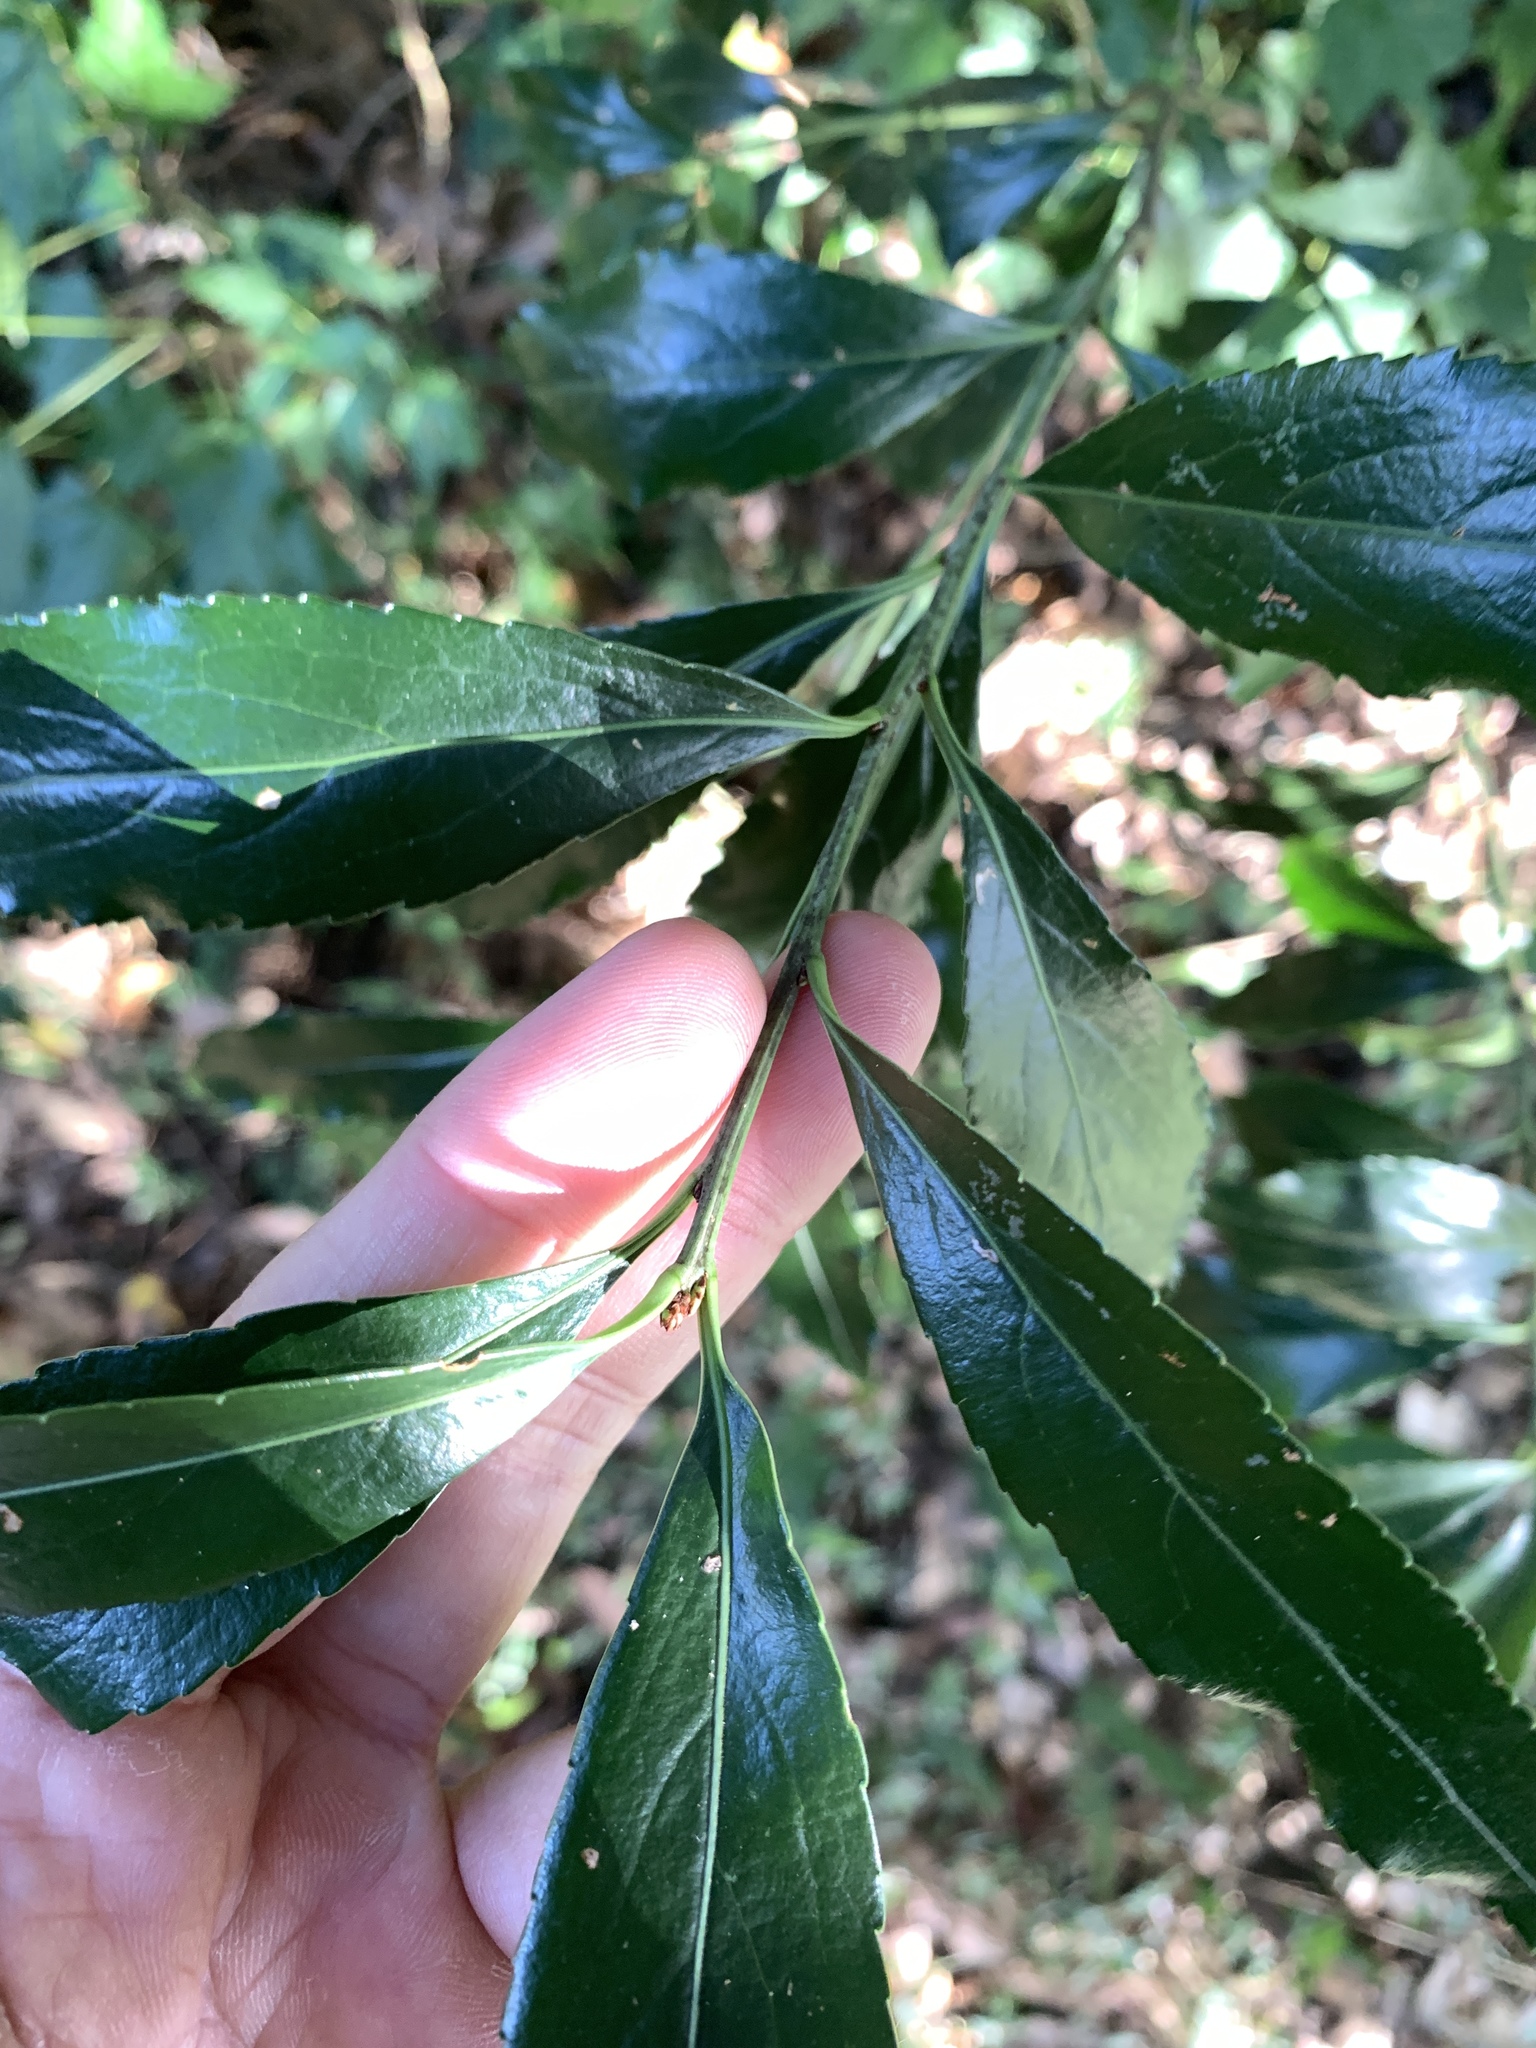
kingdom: Plantae
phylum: Tracheophyta
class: Magnoliopsida
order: Celastrales
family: Celastraceae
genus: Euonymus
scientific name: Euonymus carnosus
